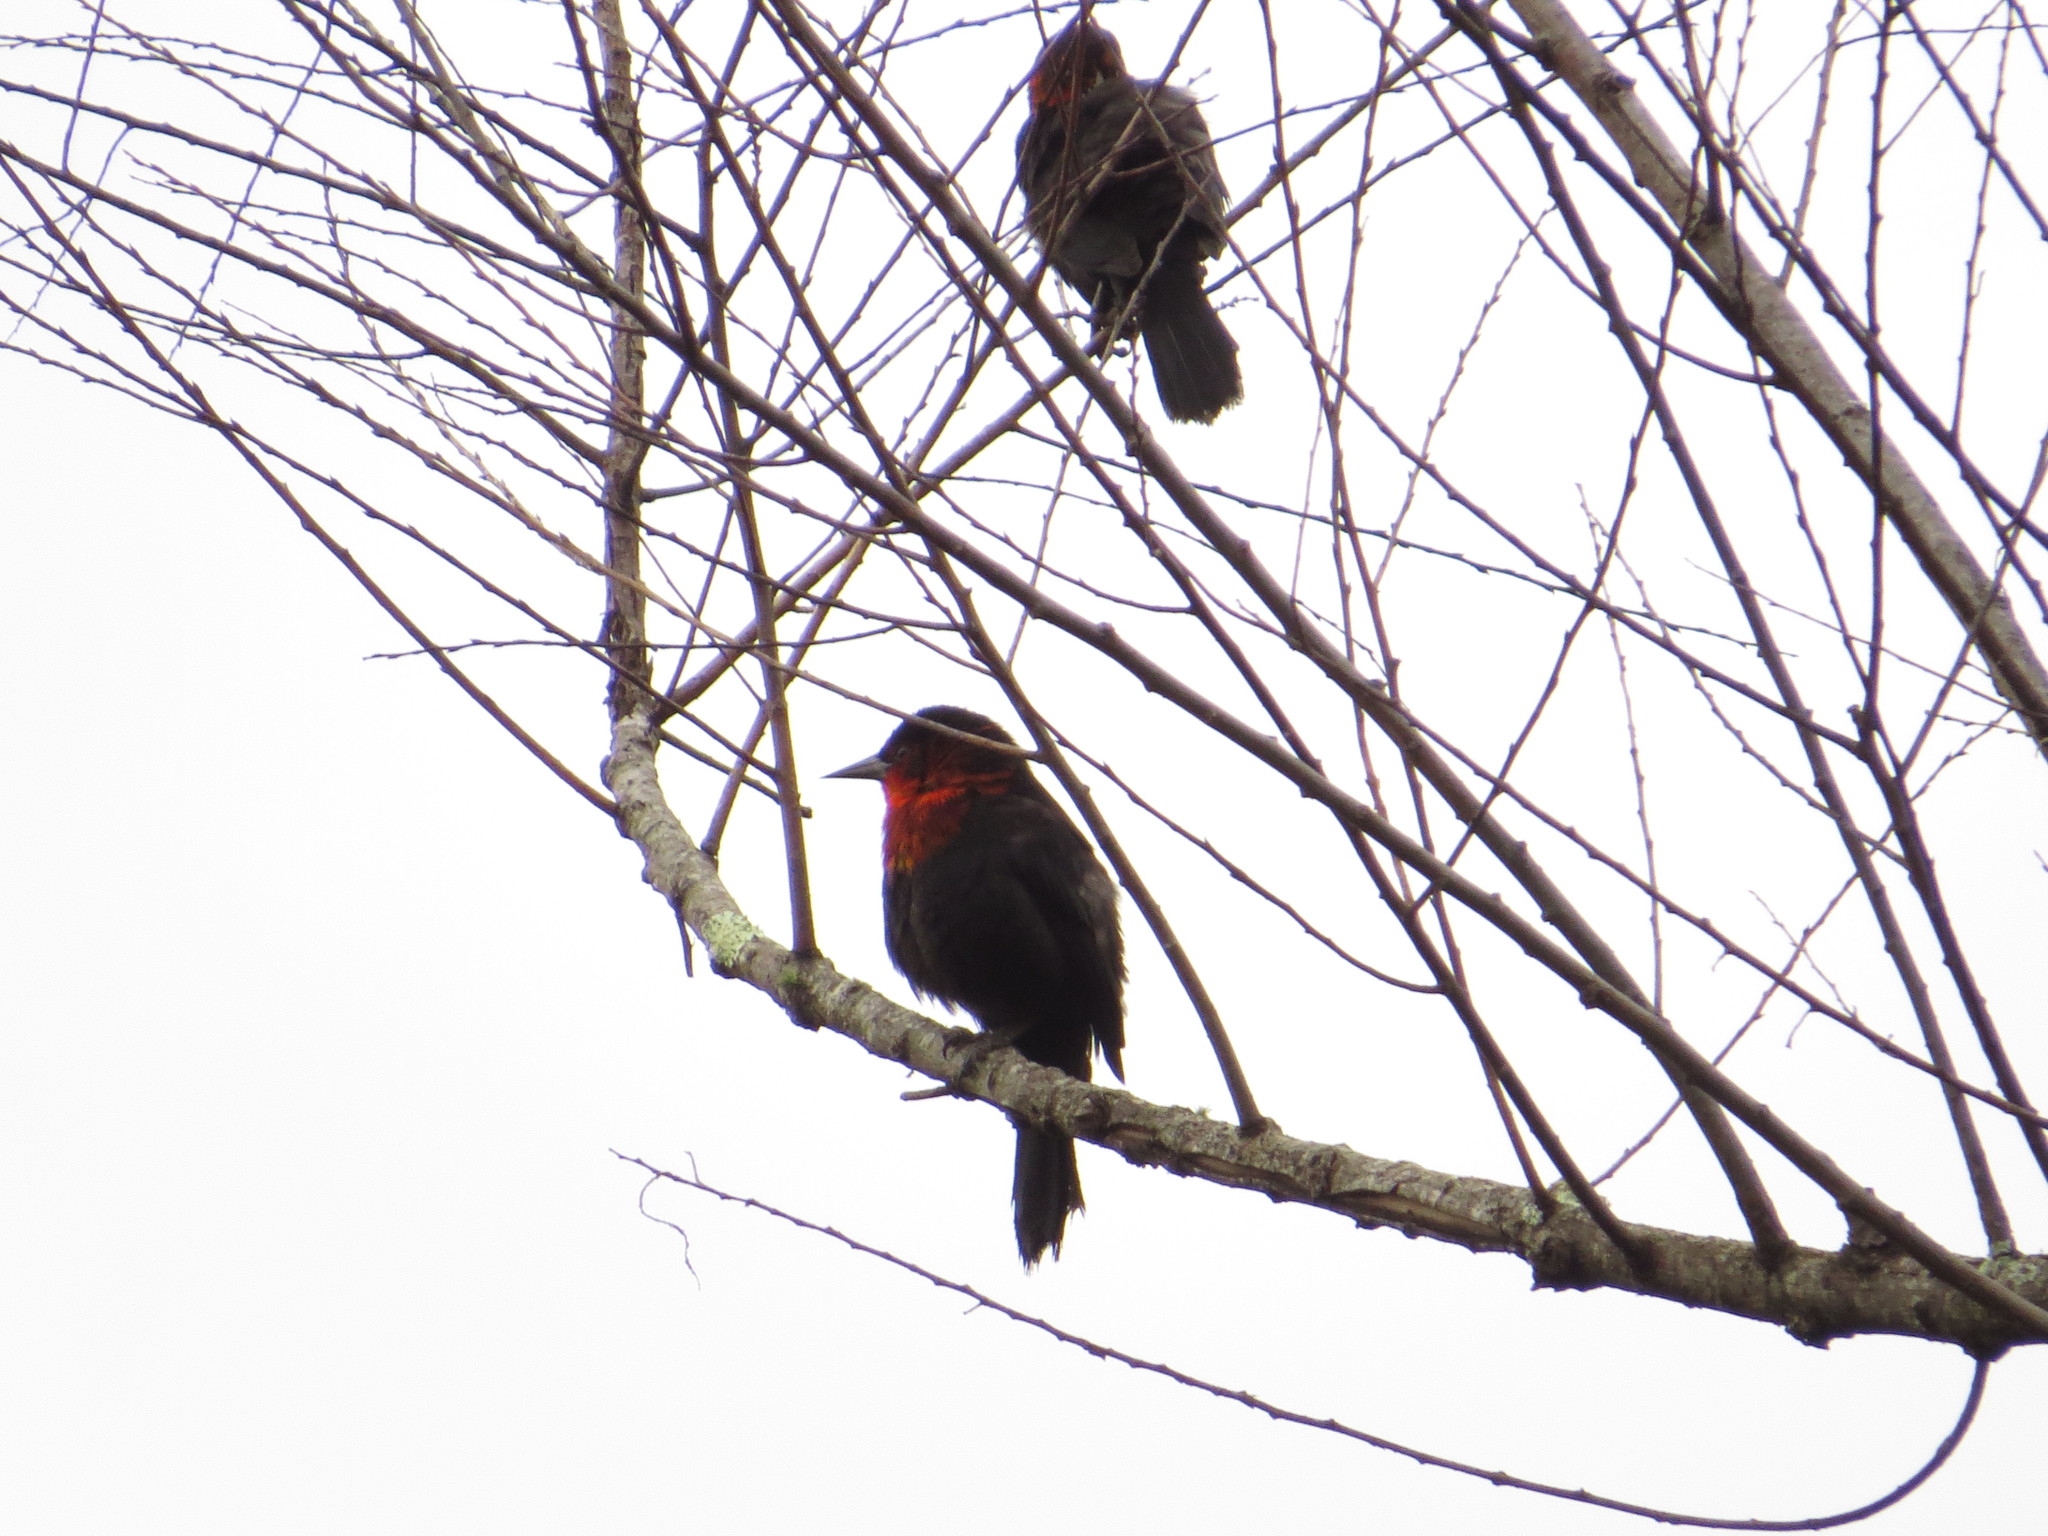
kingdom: Animalia
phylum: Chordata
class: Aves
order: Passeriformes
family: Icteridae
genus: Amblyramphus
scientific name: Amblyramphus holosericeus
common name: Scarlet-headed blackbird
